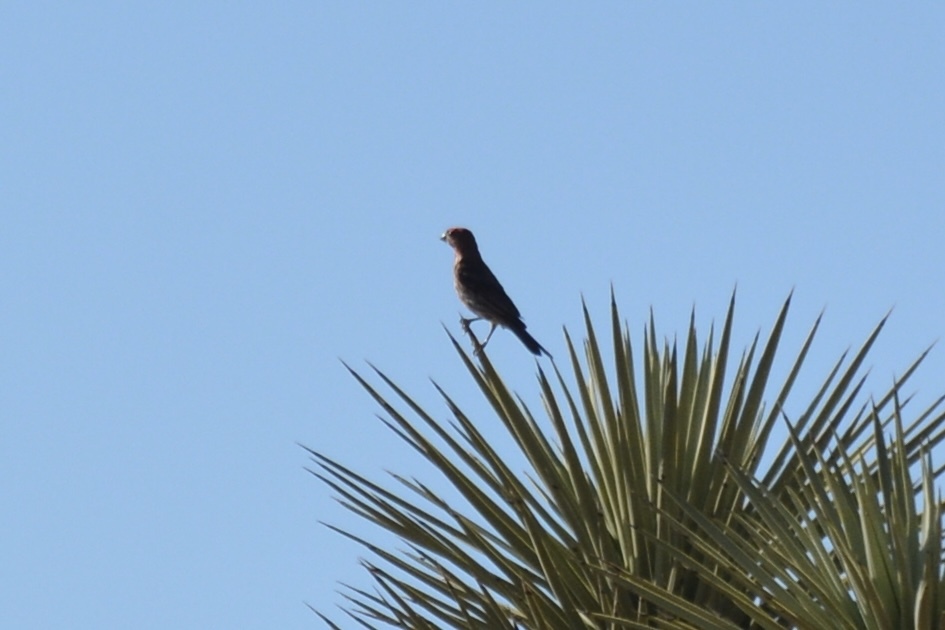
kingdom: Animalia
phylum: Chordata
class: Aves
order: Passeriformes
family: Fringillidae
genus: Haemorhous
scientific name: Haemorhous mexicanus
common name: House finch
